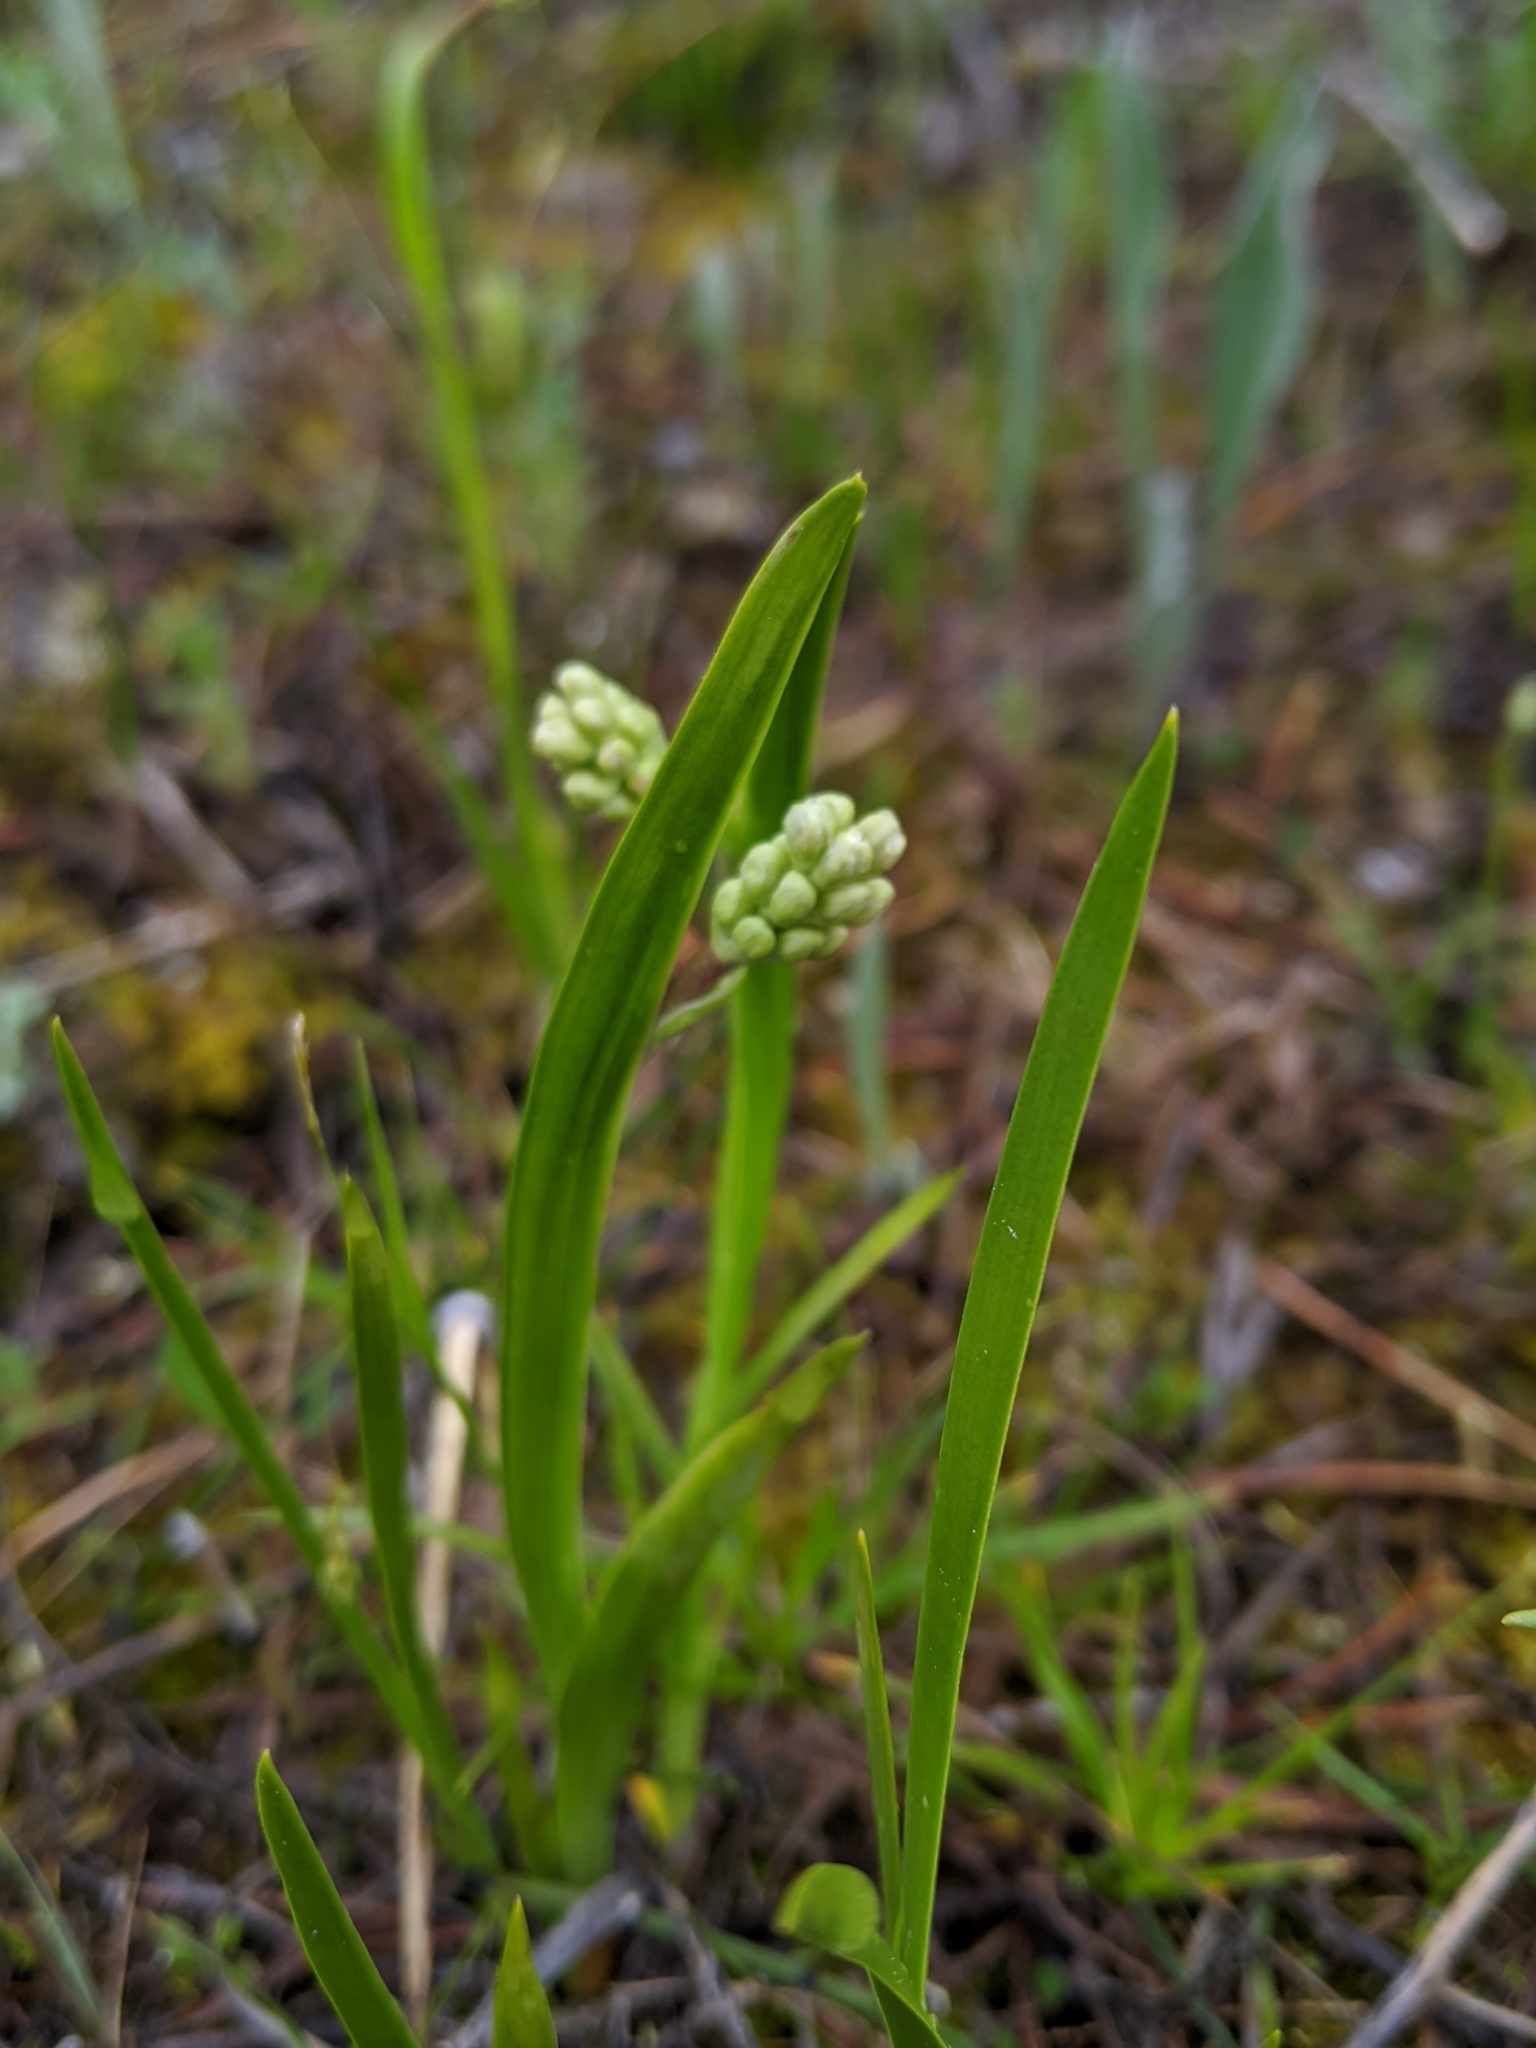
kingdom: Plantae
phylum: Tracheophyta
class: Liliopsida
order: Alismatales
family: Tofieldiaceae
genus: Triantha
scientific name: Triantha glutinosa
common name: Glutinous tofieldia
